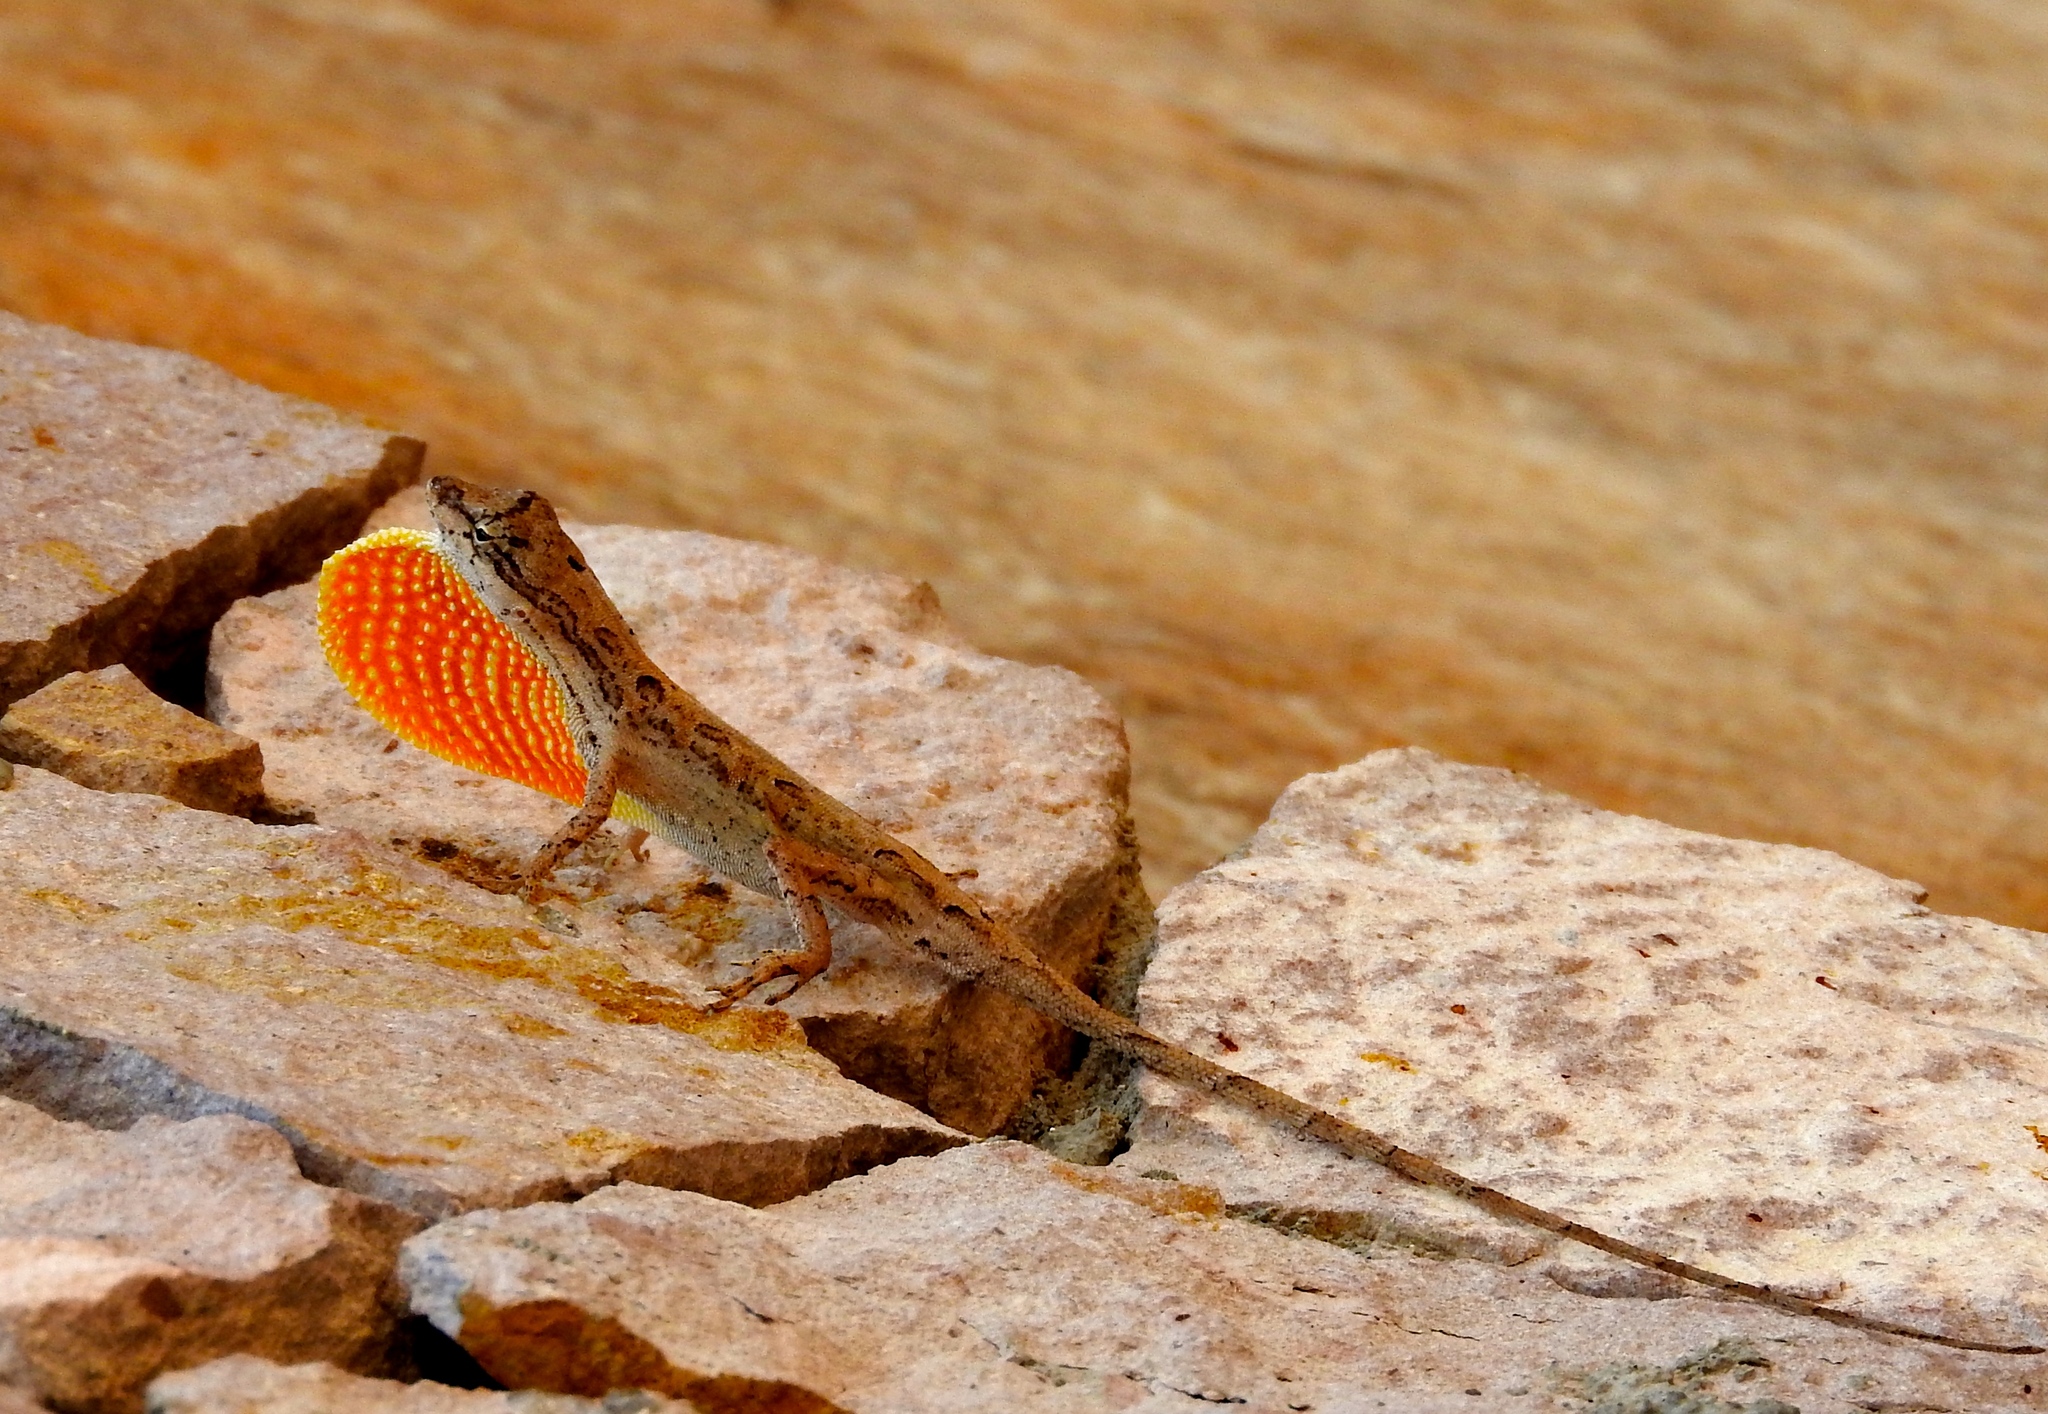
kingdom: Animalia
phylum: Chordata
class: Squamata
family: Dactyloidae
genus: Anolis
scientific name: Anolis nebulosus
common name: Clouded anole
